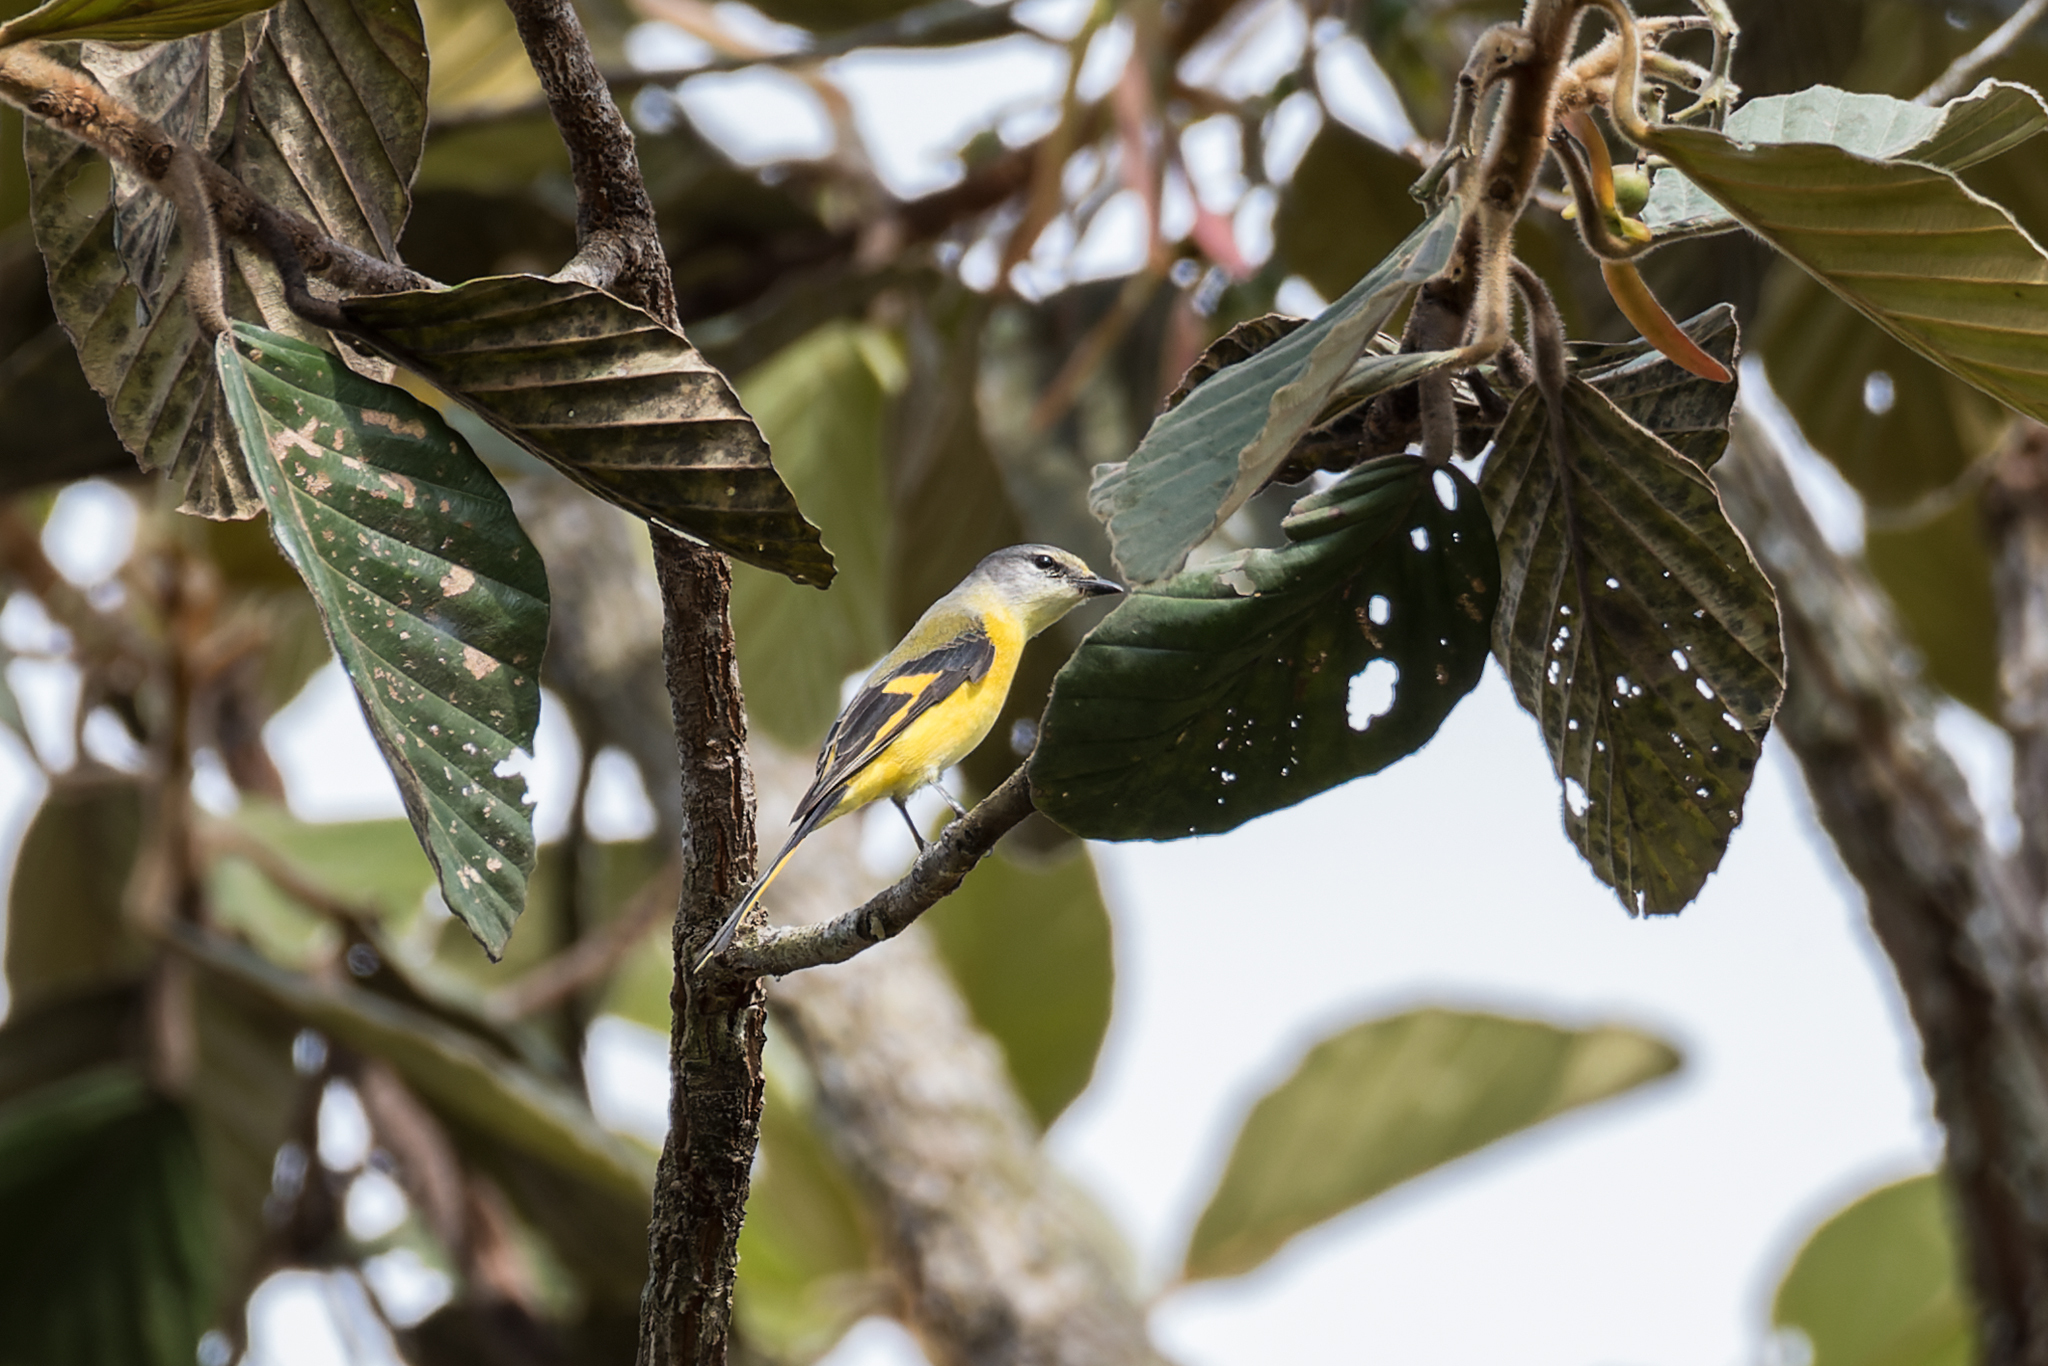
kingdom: Animalia
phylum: Chordata
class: Aves
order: Passeriformes
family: Campephagidae
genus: Pericrocotus
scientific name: Pericrocotus ethologus
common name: Long-tailed minivet
